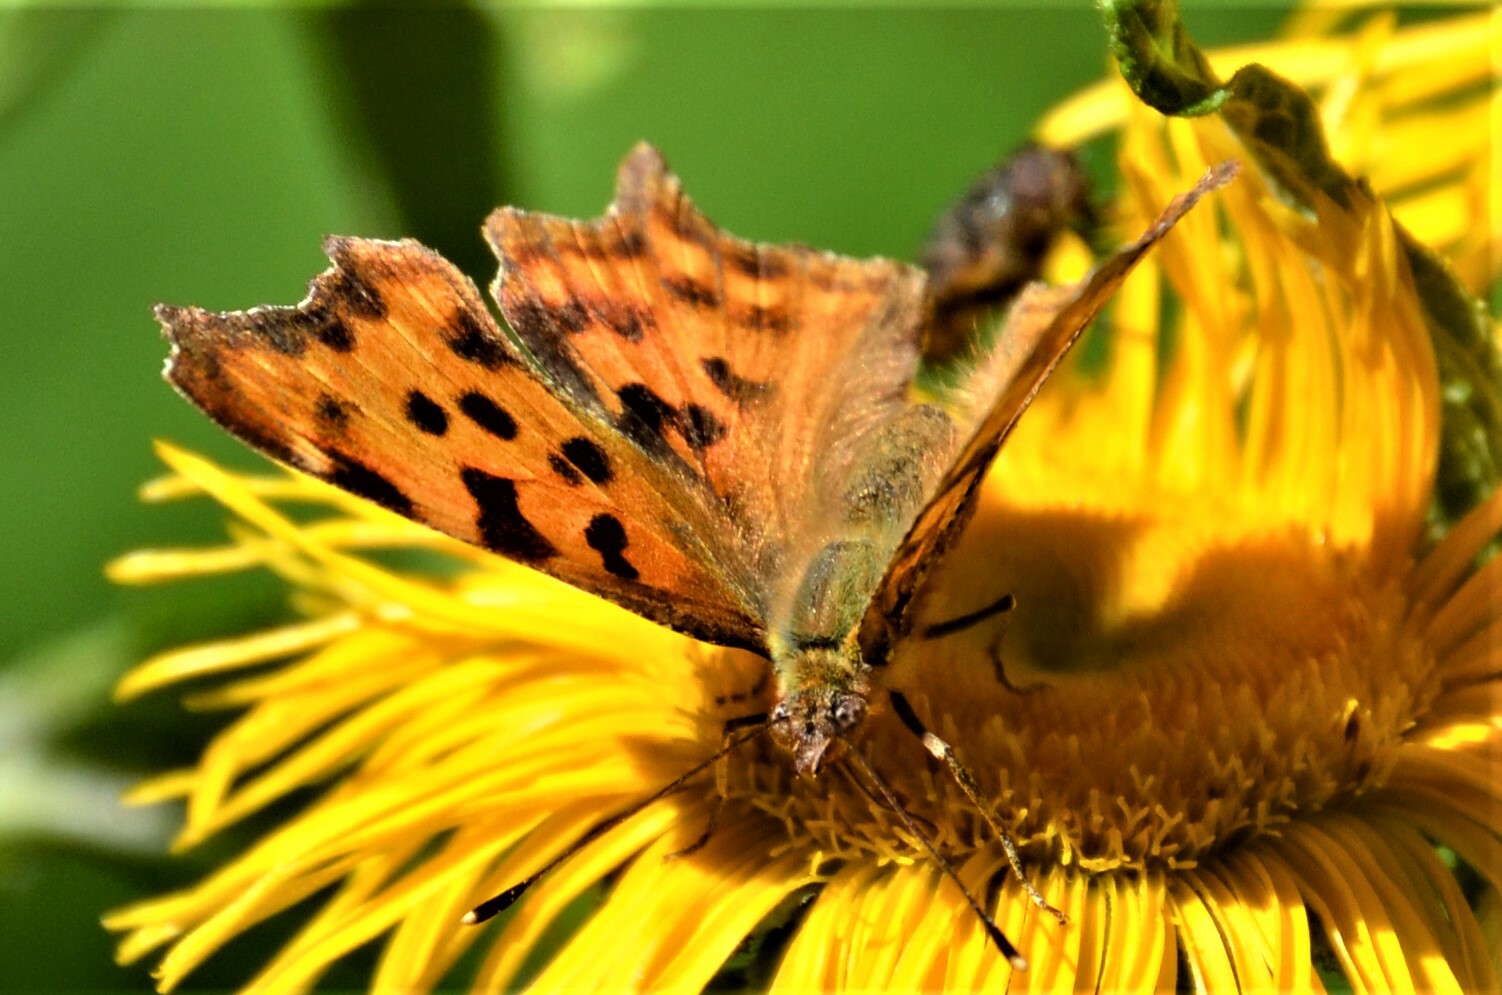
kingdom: Animalia
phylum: Arthropoda
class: Insecta
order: Lepidoptera
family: Nymphalidae
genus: Polygonia
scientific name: Polygonia c-album
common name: Comma
